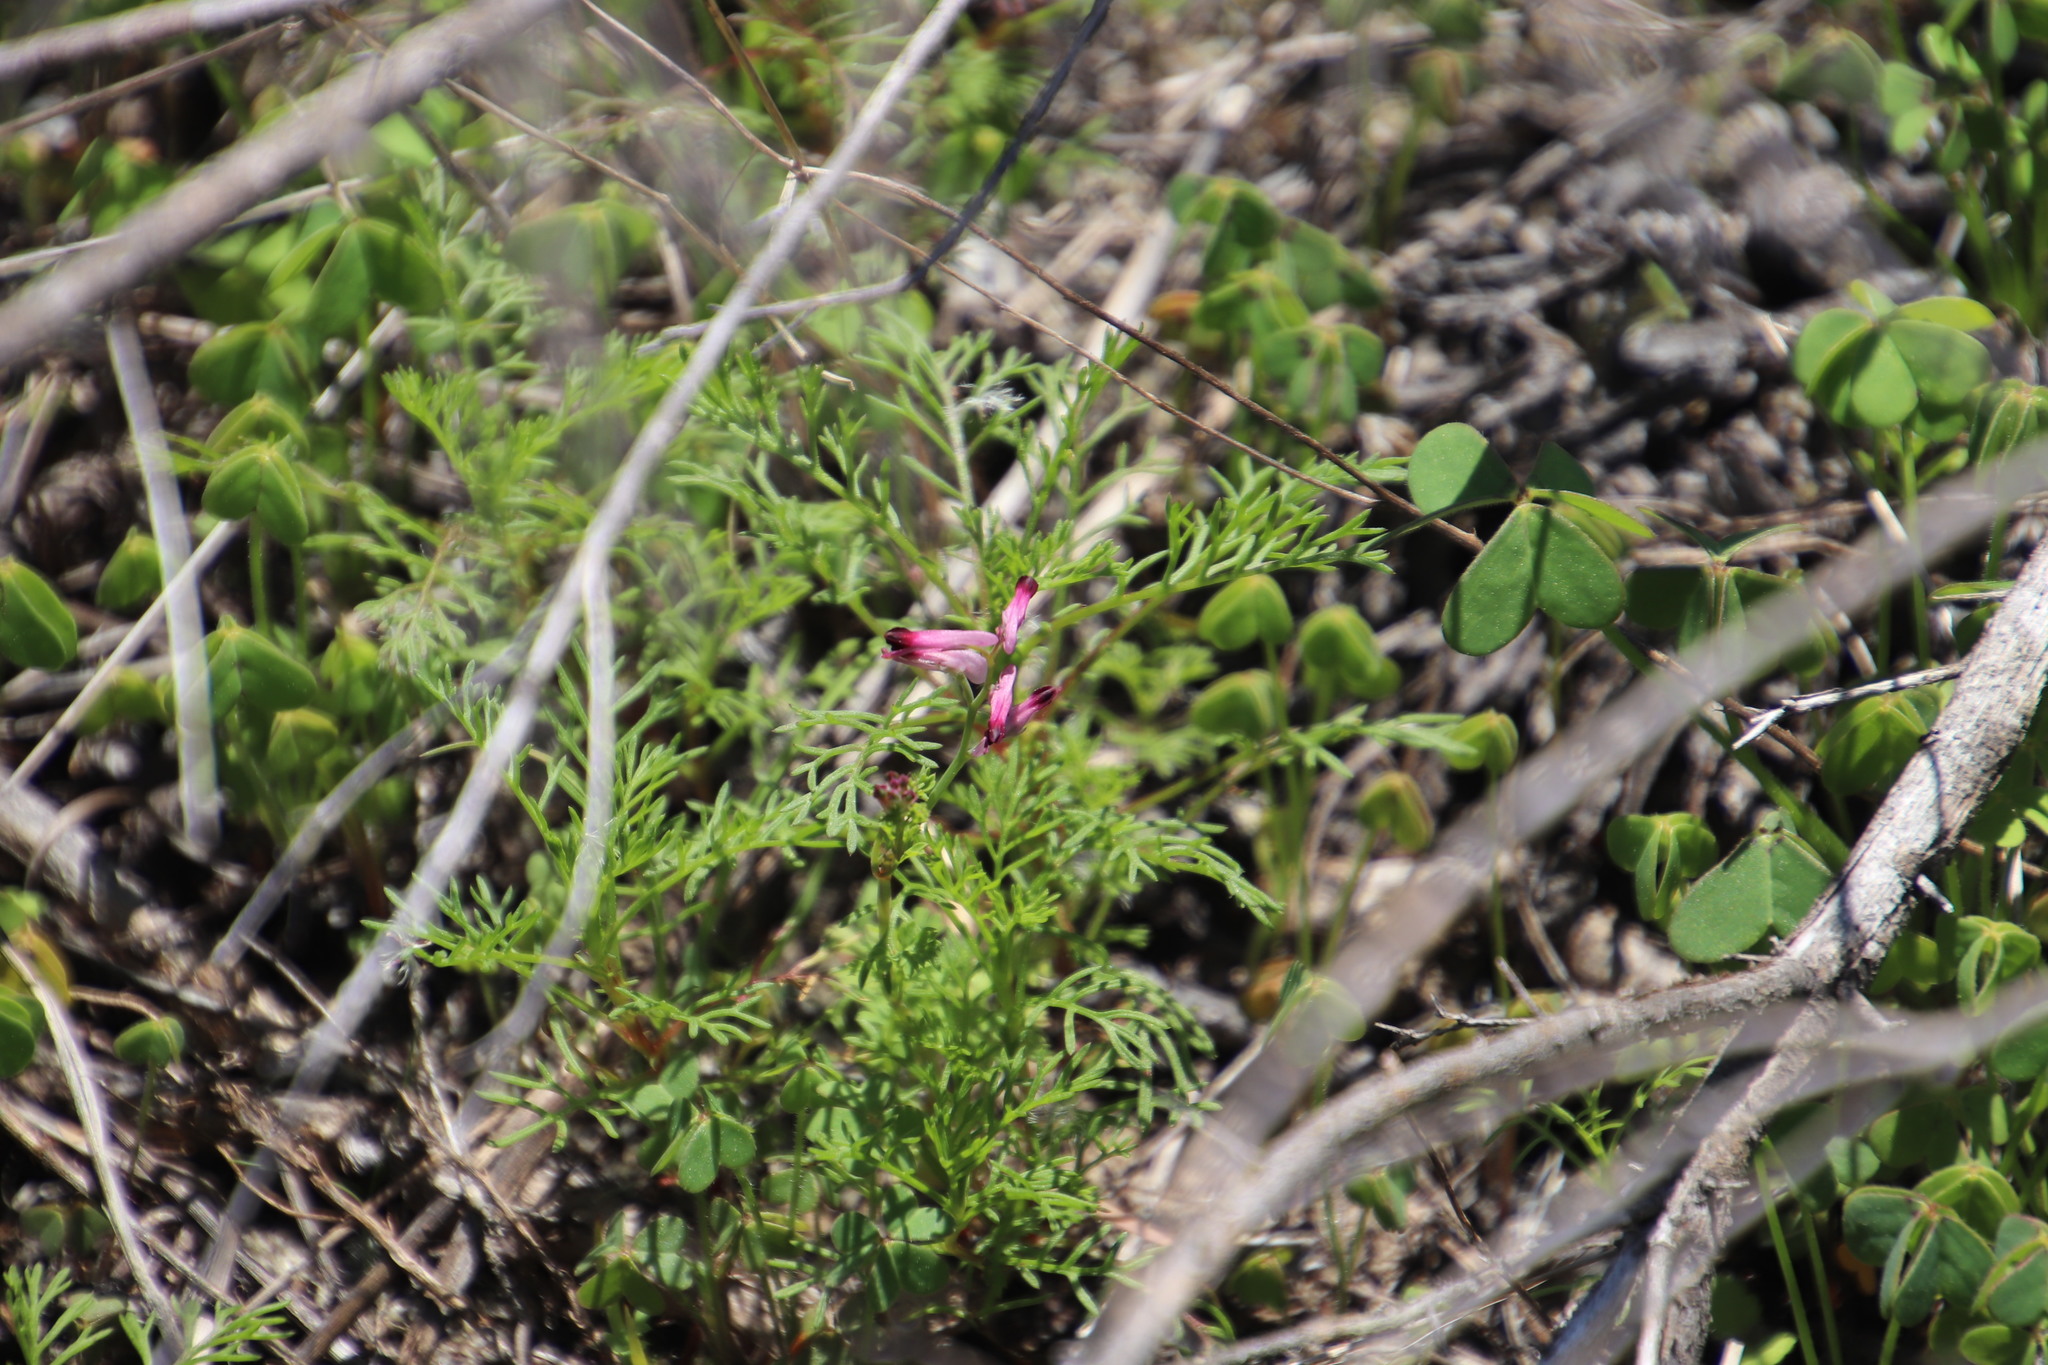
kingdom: Plantae
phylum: Tracheophyta
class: Magnoliopsida
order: Ranunculales
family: Papaveraceae
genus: Fumaria
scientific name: Fumaria muralis
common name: Common ramping-fumitory
